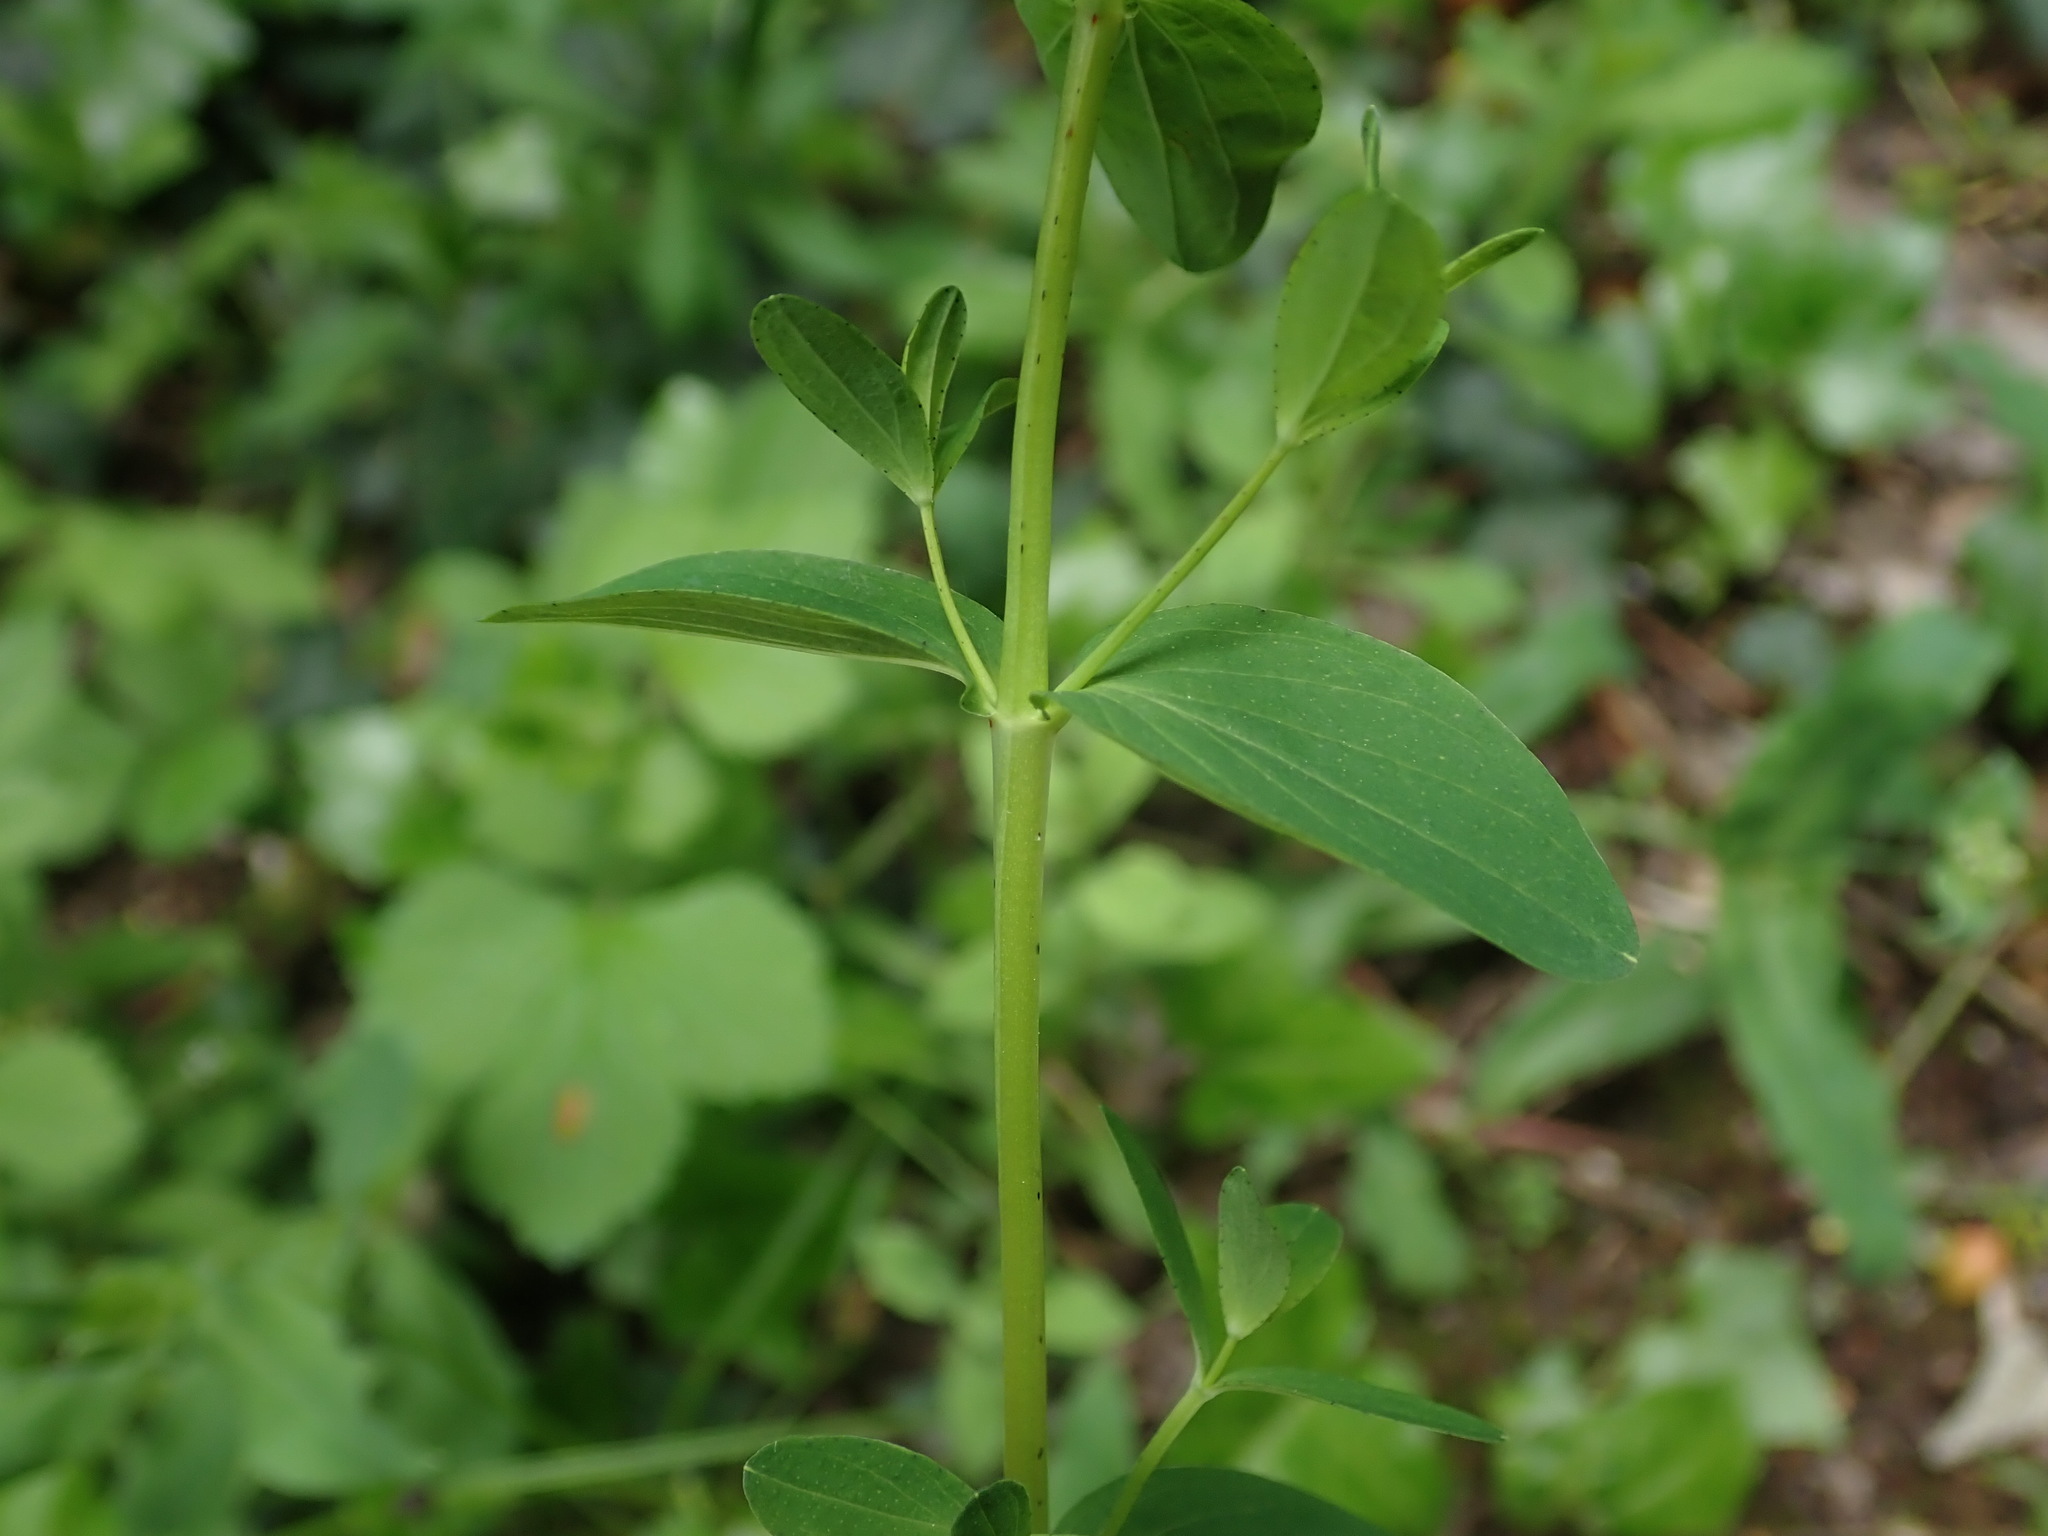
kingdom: Plantae
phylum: Tracheophyta
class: Magnoliopsida
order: Malpighiales
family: Hypericaceae
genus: Hypericum
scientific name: Hypericum perforatum
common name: Common st. johnswort
